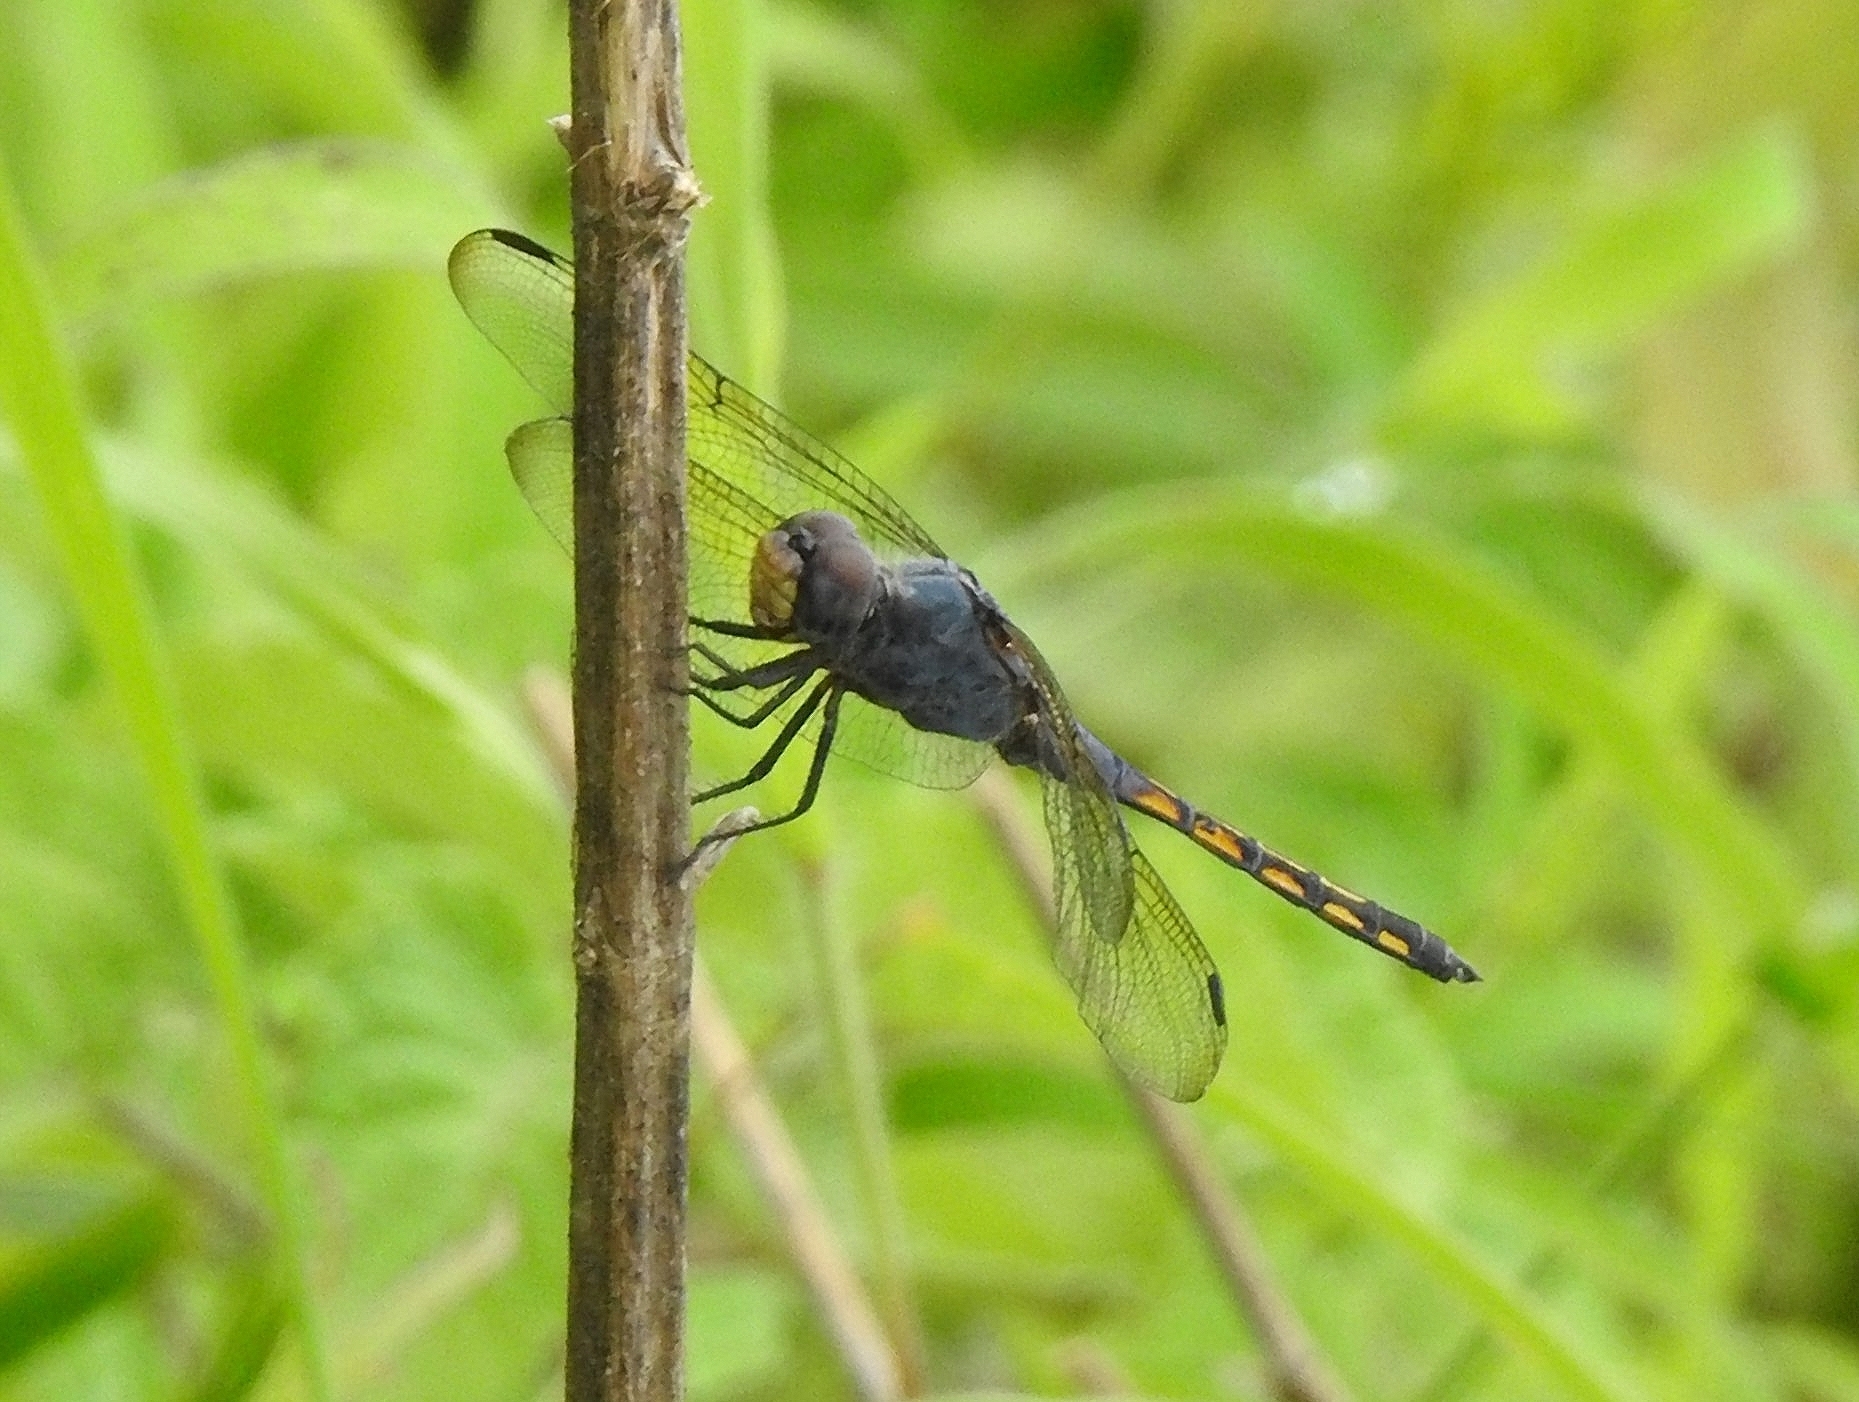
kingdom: Animalia
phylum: Arthropoda
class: Insecta
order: Odonata
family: Libellulidae
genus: Potamarcha
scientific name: Potamarcha congener
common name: Blue chaser
